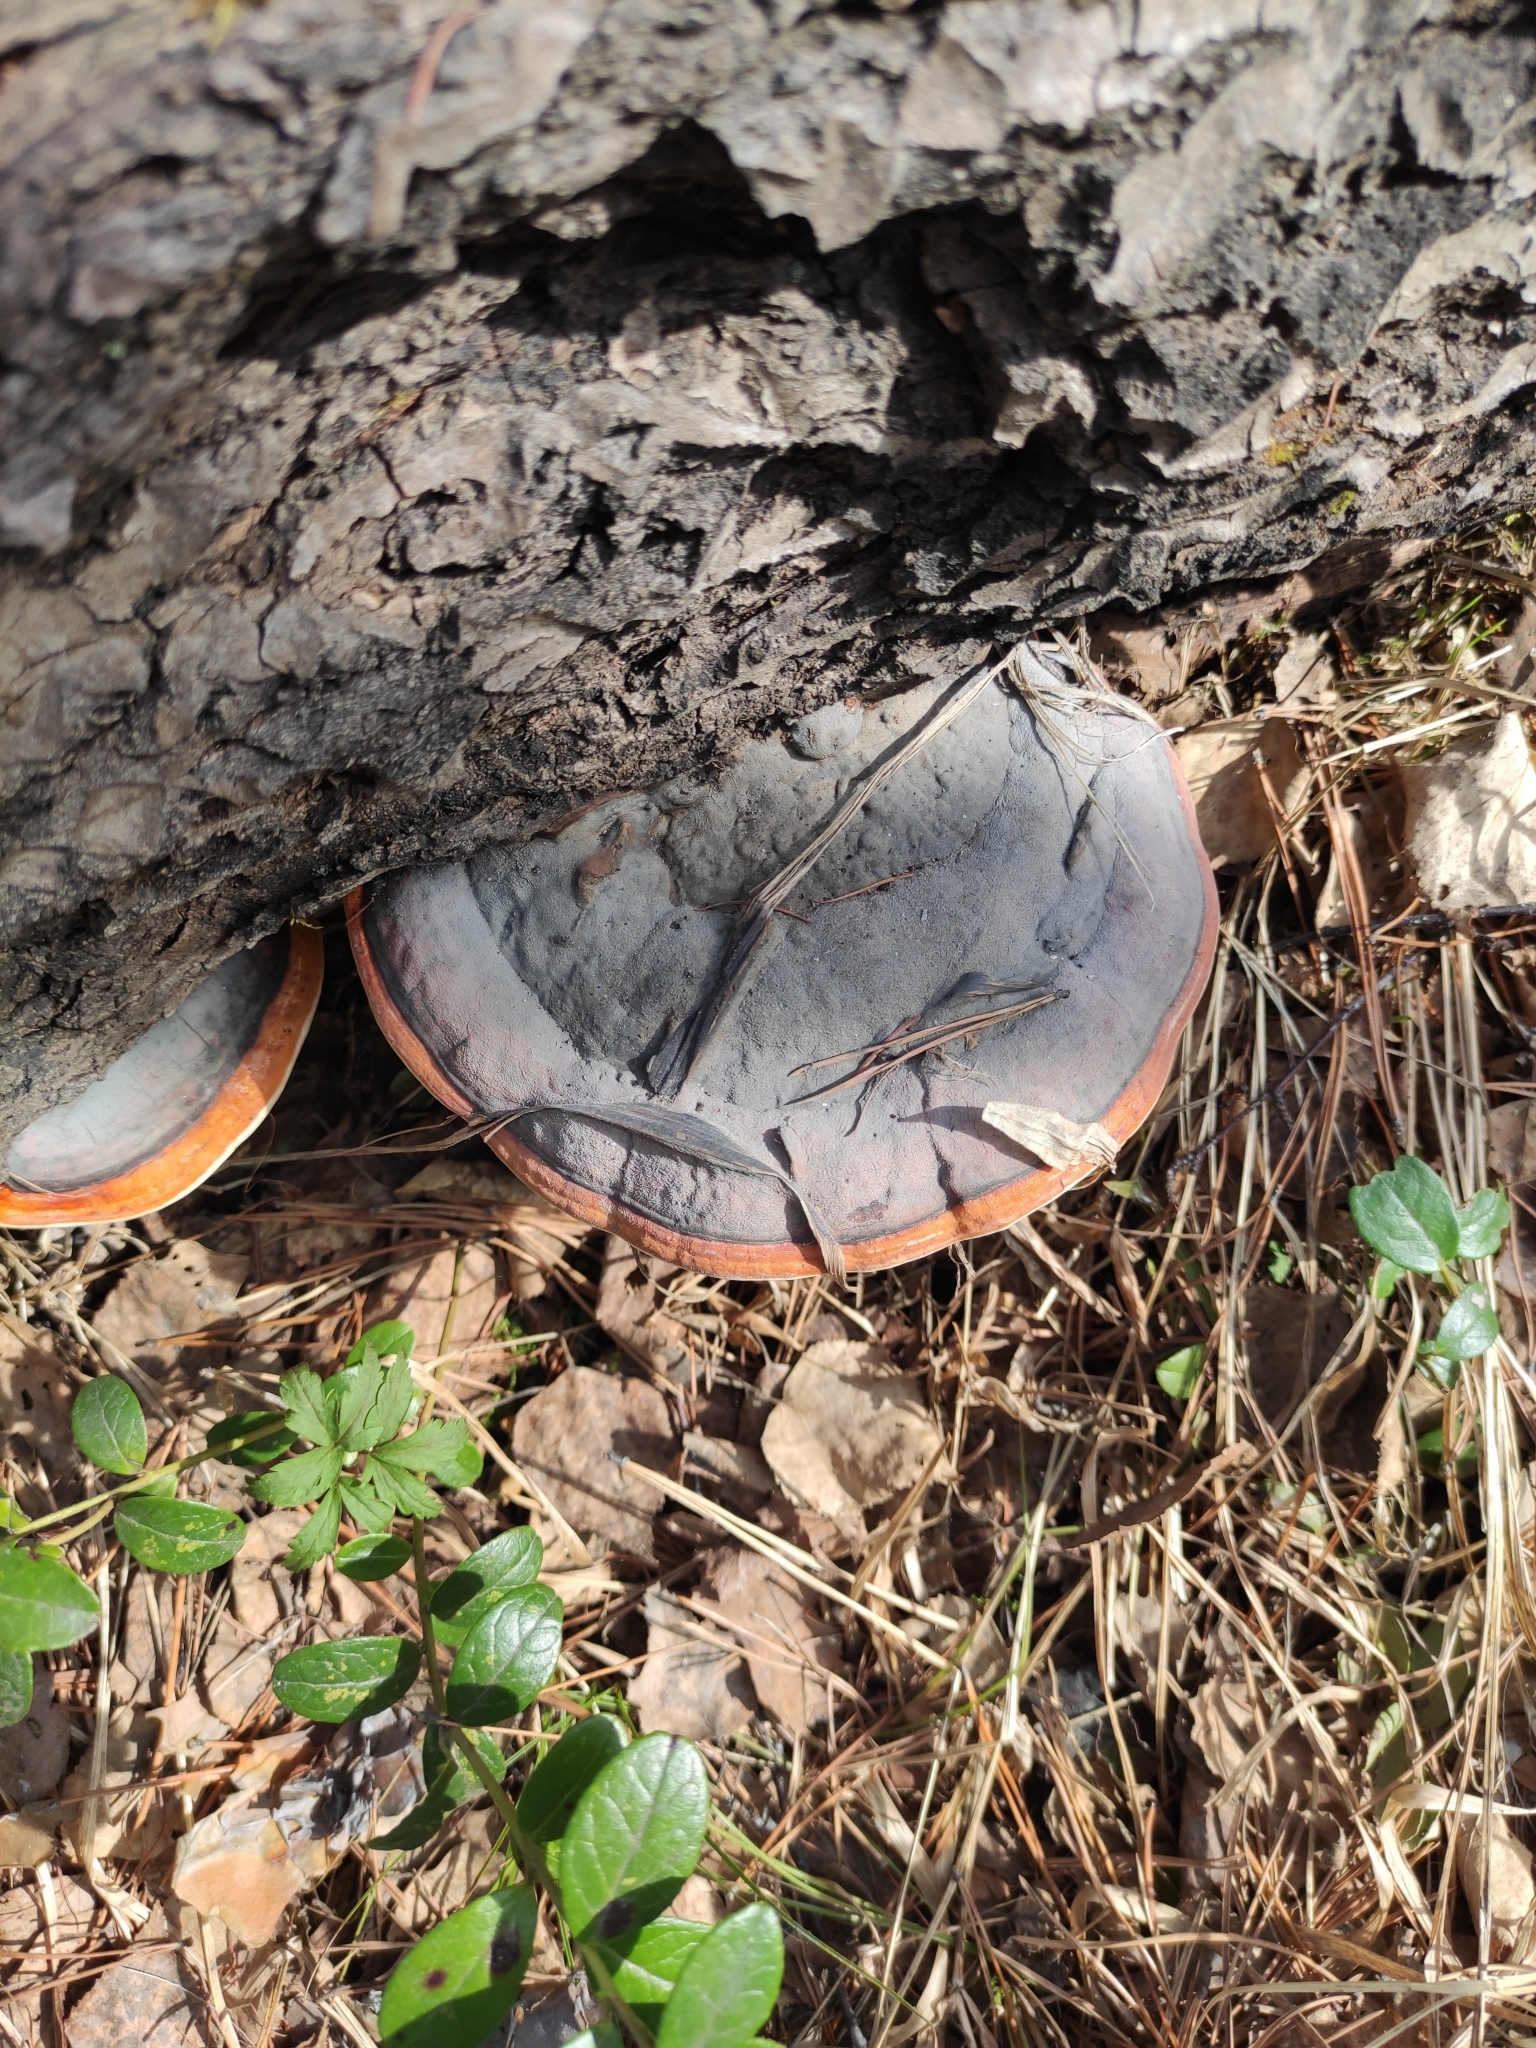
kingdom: Fungi
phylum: Basidiomycota
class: Agaricomycetes
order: Polyporales
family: Fomitopsidaceae
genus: Fomitopsis
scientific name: Fomitopsis pinicola
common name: Red-belted bracket
